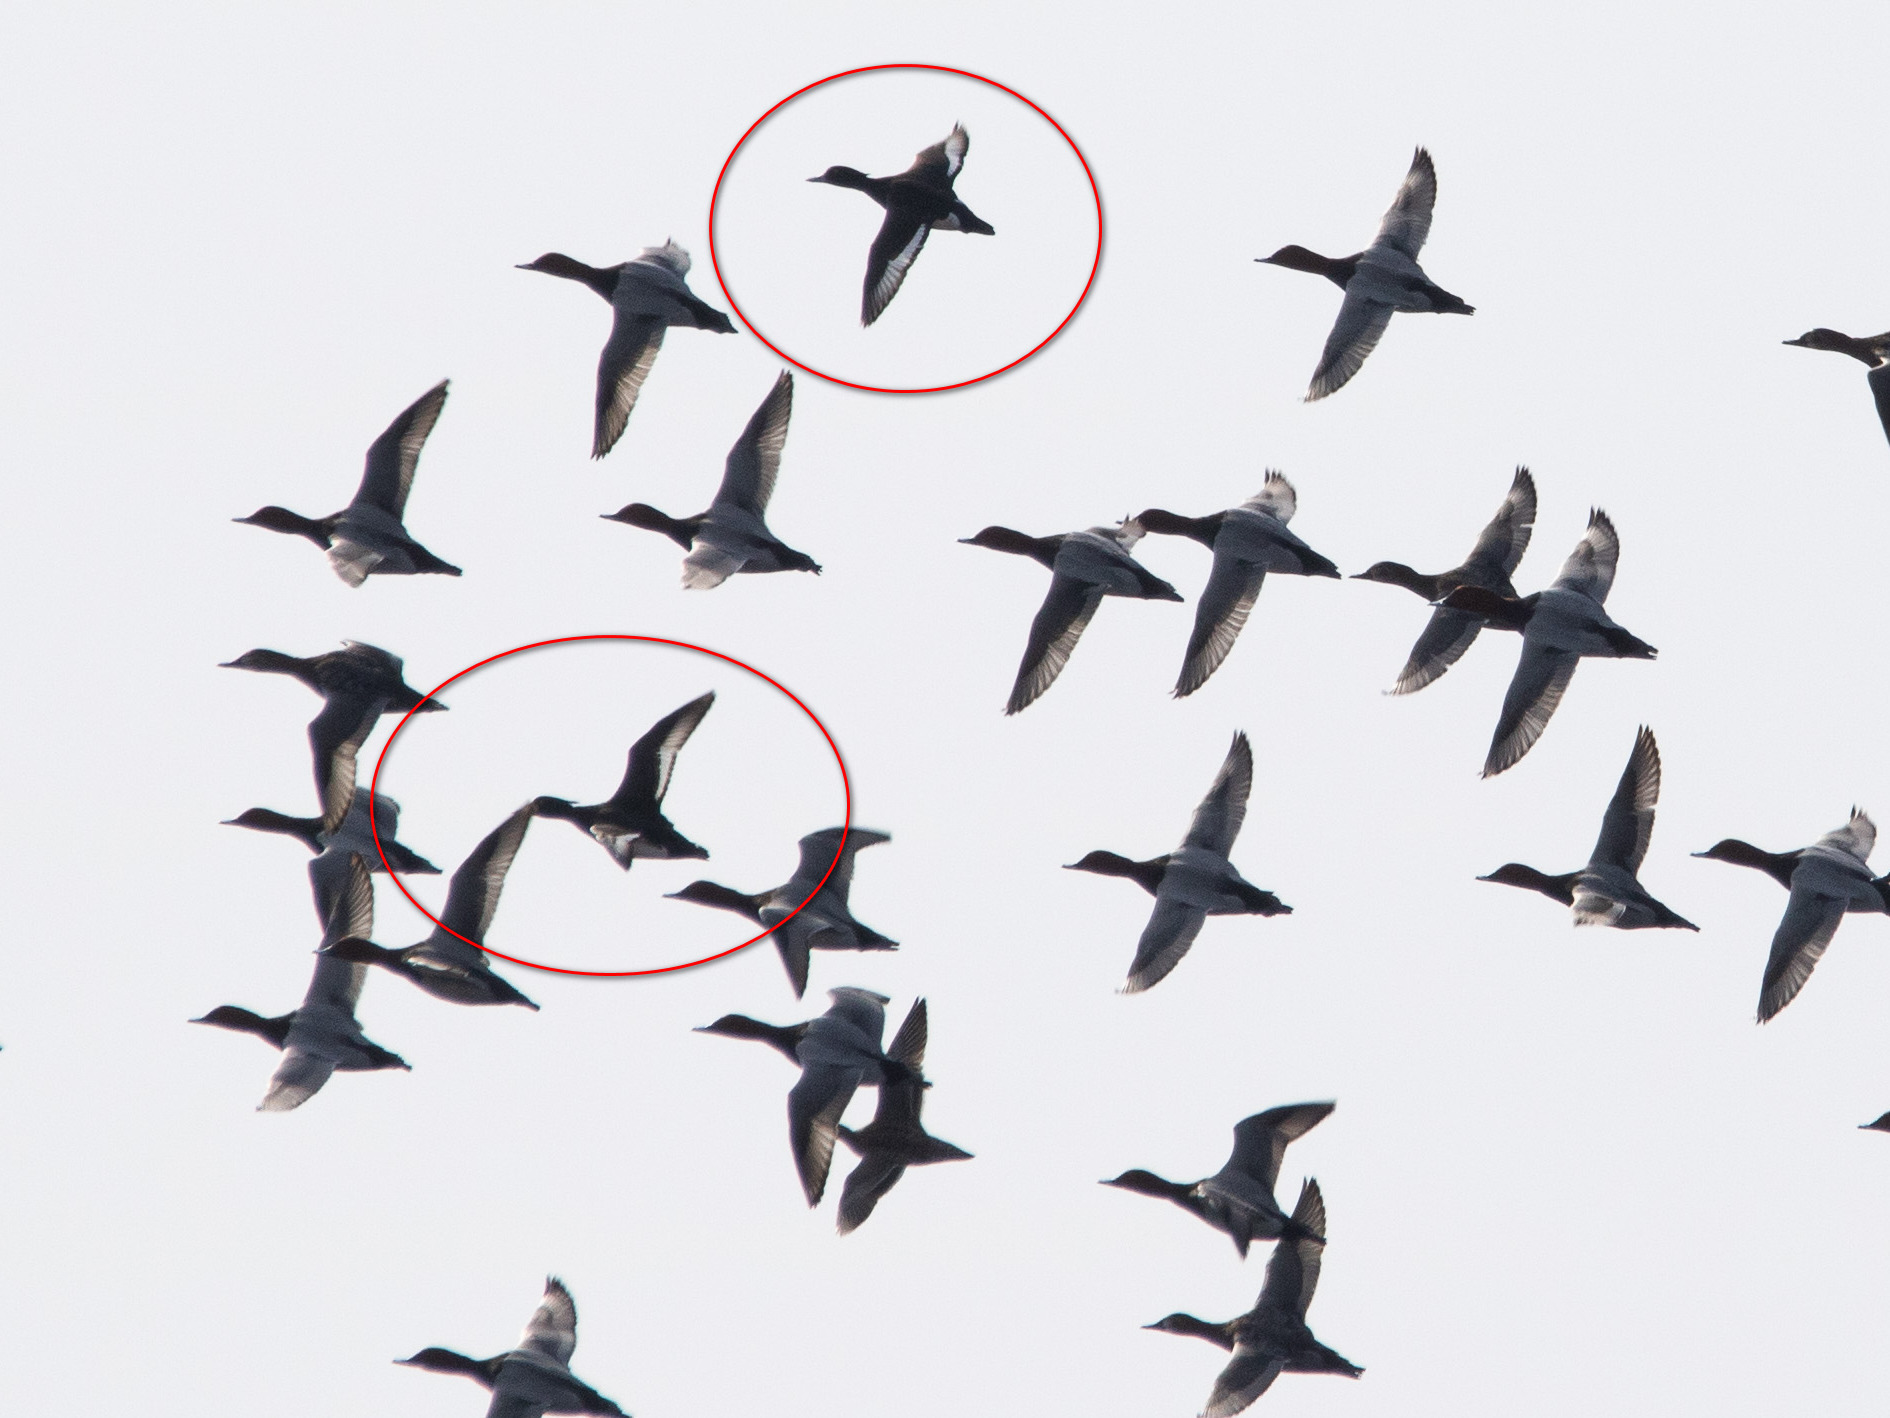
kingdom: Animalia
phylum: Chordata
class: Aves
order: Anseriformes
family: Anatidae
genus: Aythya
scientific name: Aythya fuligula
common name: Tufted duck
